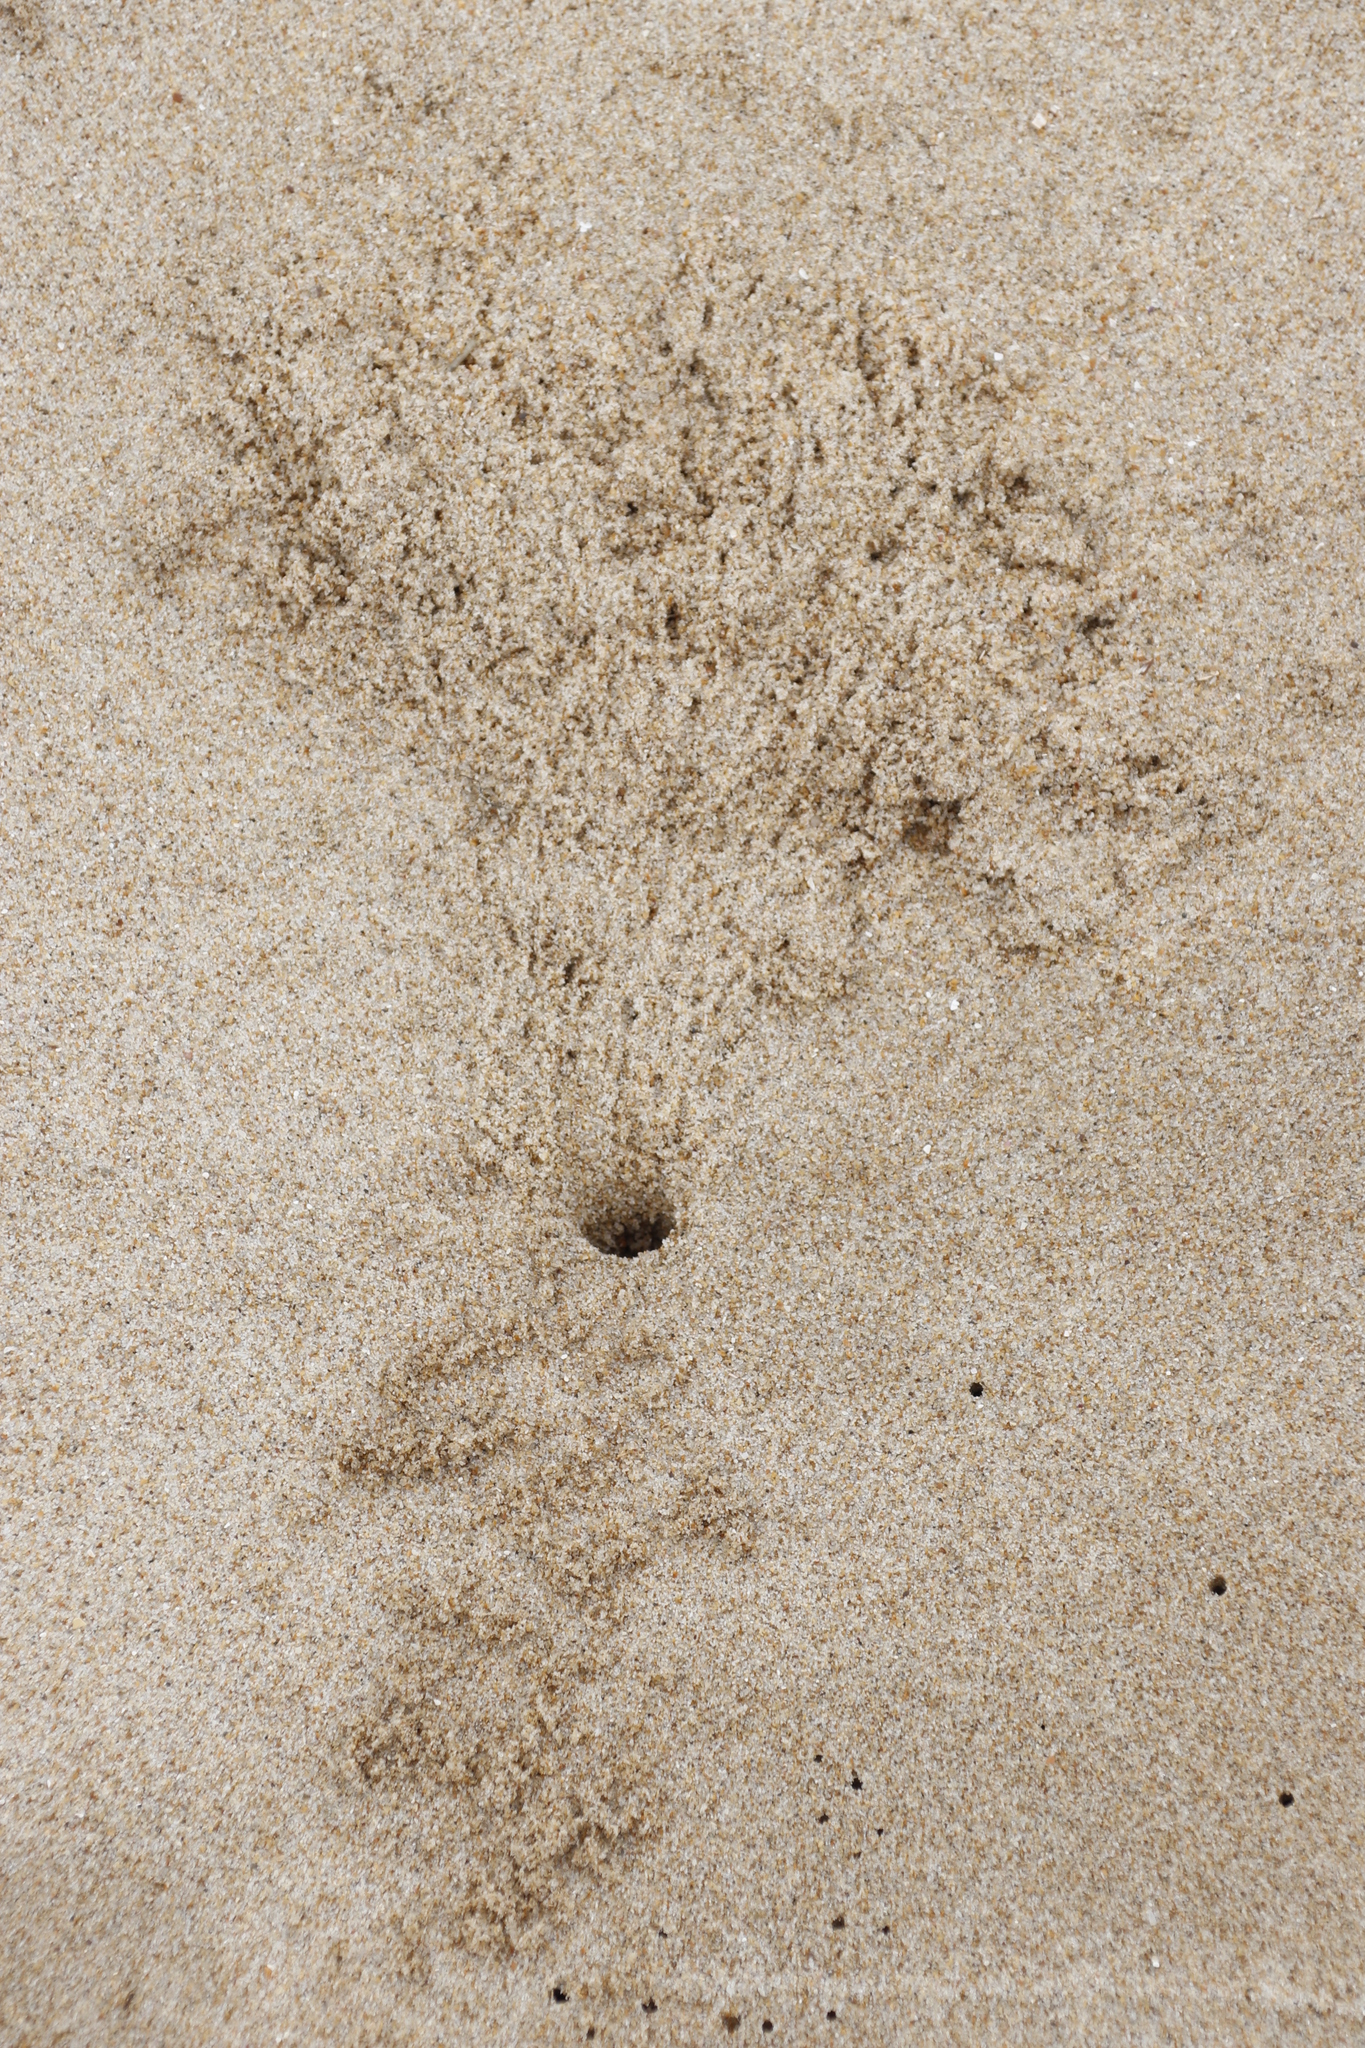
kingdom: Animalia
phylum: Arthropoda
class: Malacostraca
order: Decapoda
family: Ocypodidae
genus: Ocypode
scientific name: Ocypode
